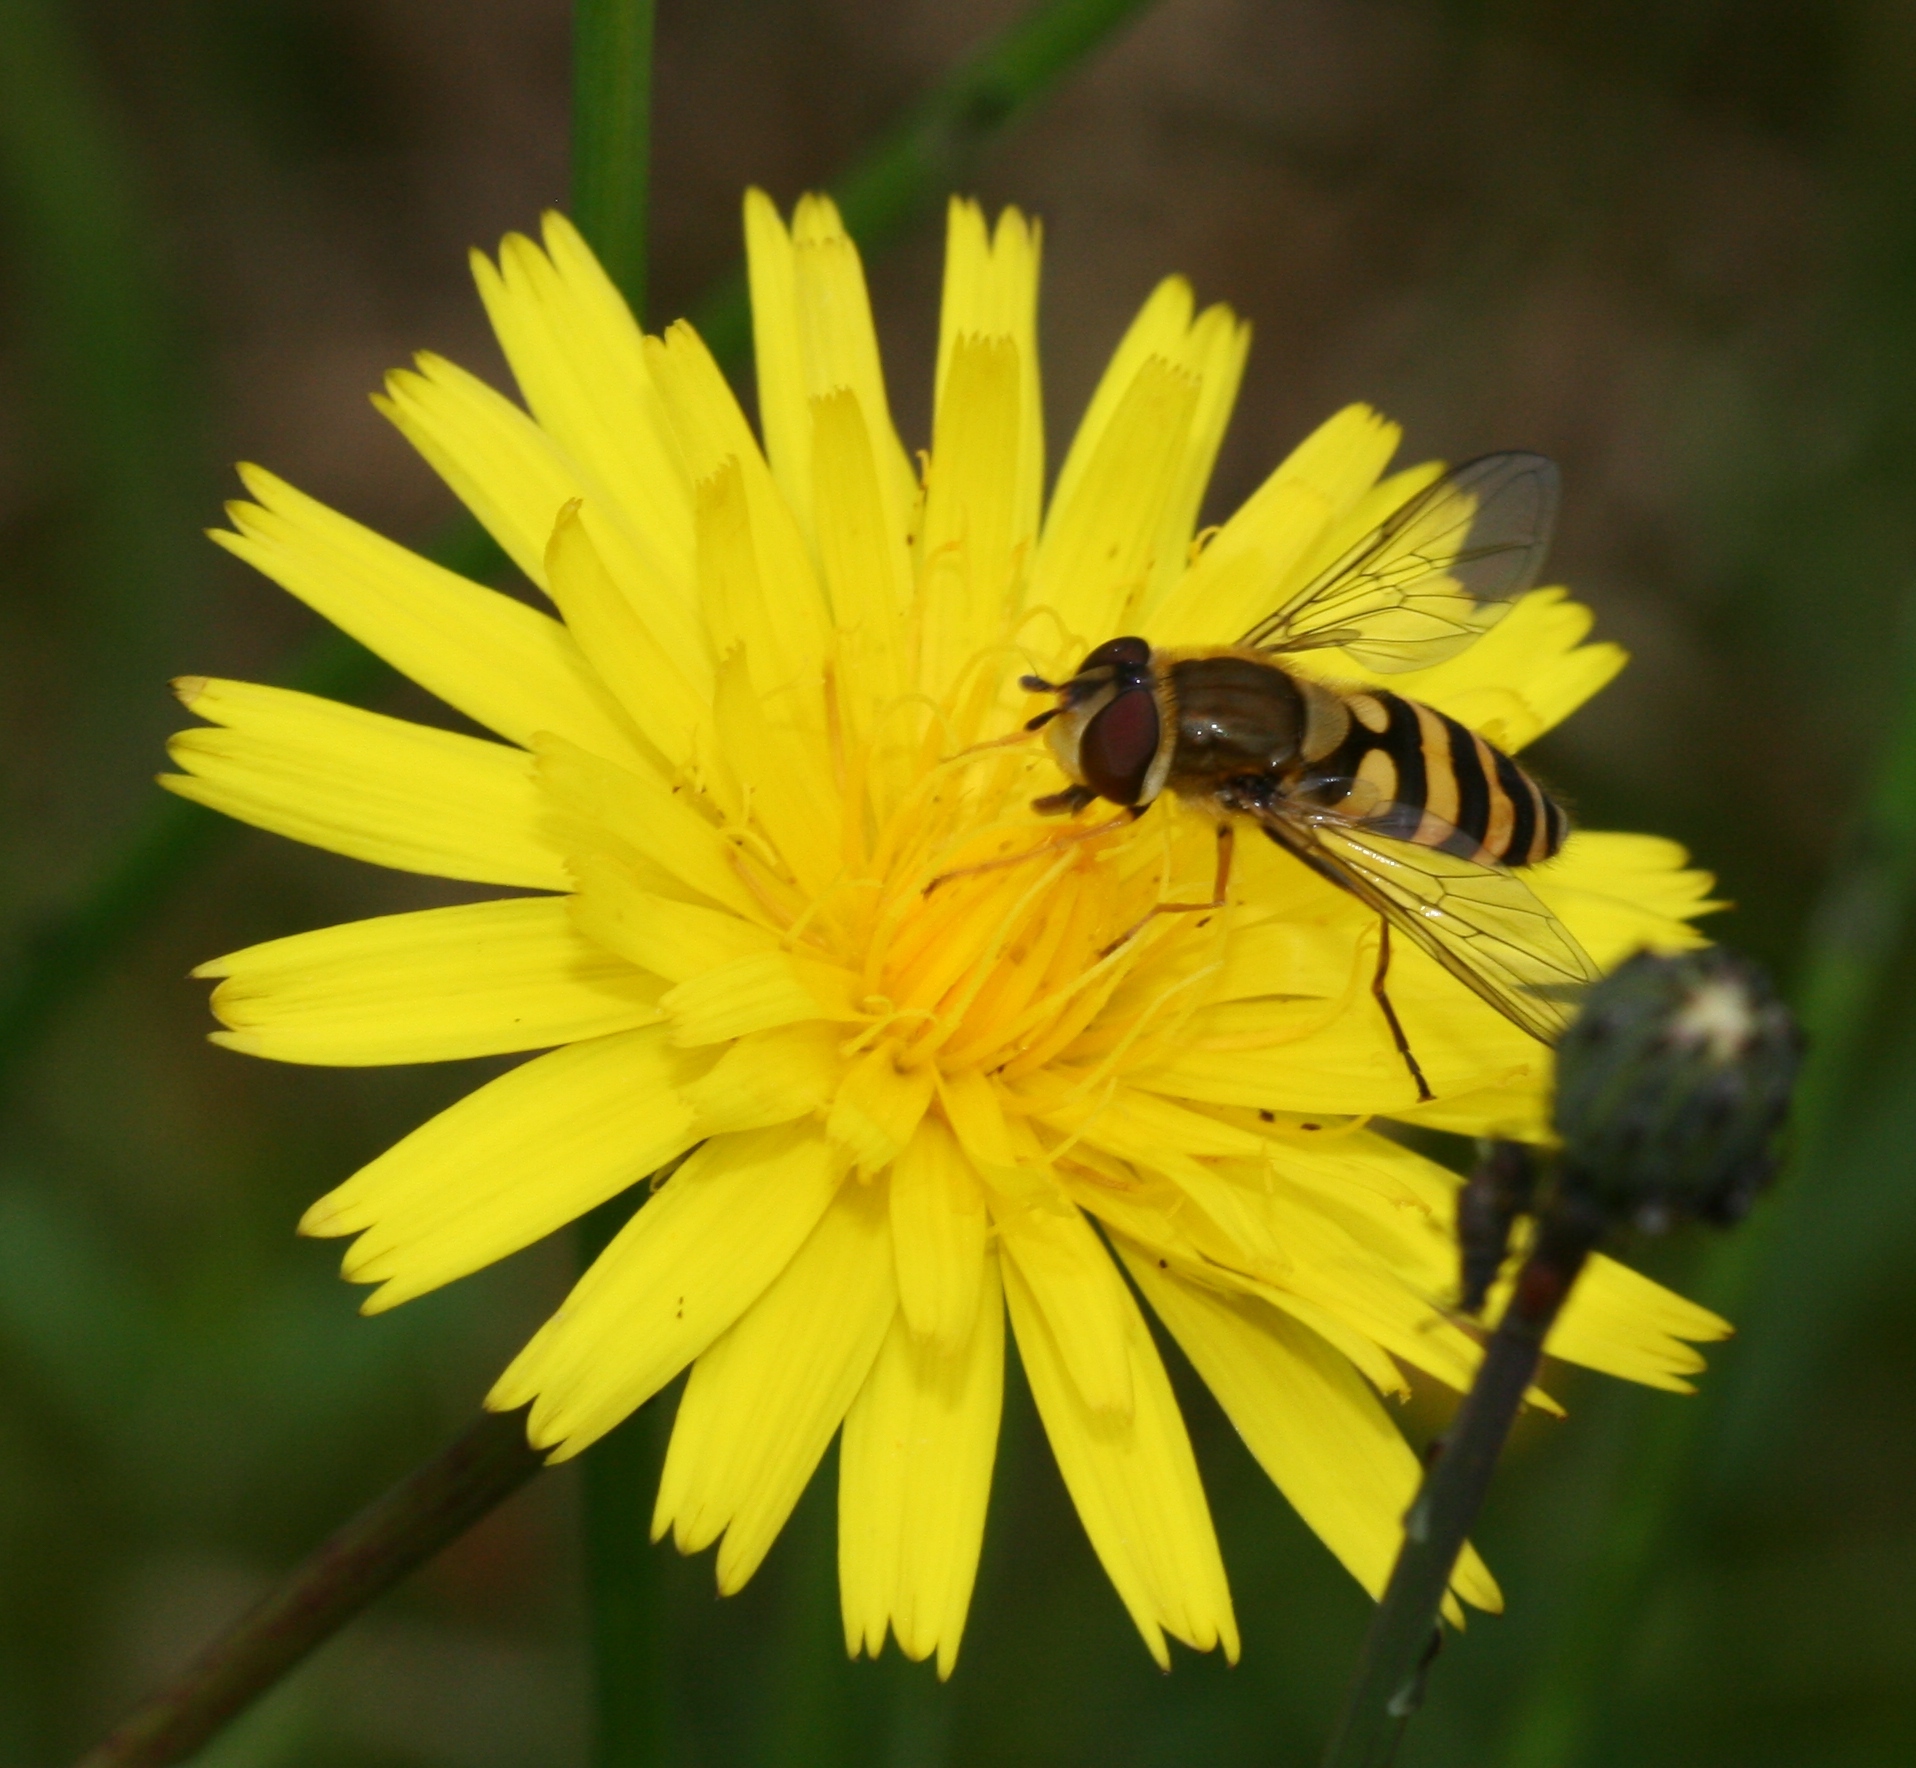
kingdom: Animalia
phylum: Arthropoda
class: Insecta
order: Diptera
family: Syrphidae
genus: Syrphus
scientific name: Syrphus
